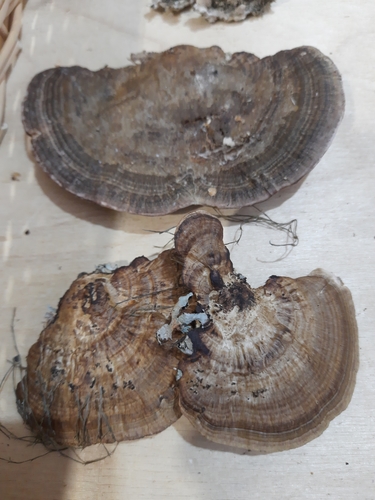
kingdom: Fungi
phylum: Basidiomycota
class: Agaricomycetes
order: Polyporales
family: Polyporaceae
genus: Daedaleopsis
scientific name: Daedaleopsis confragosa
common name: Blushing bracket
